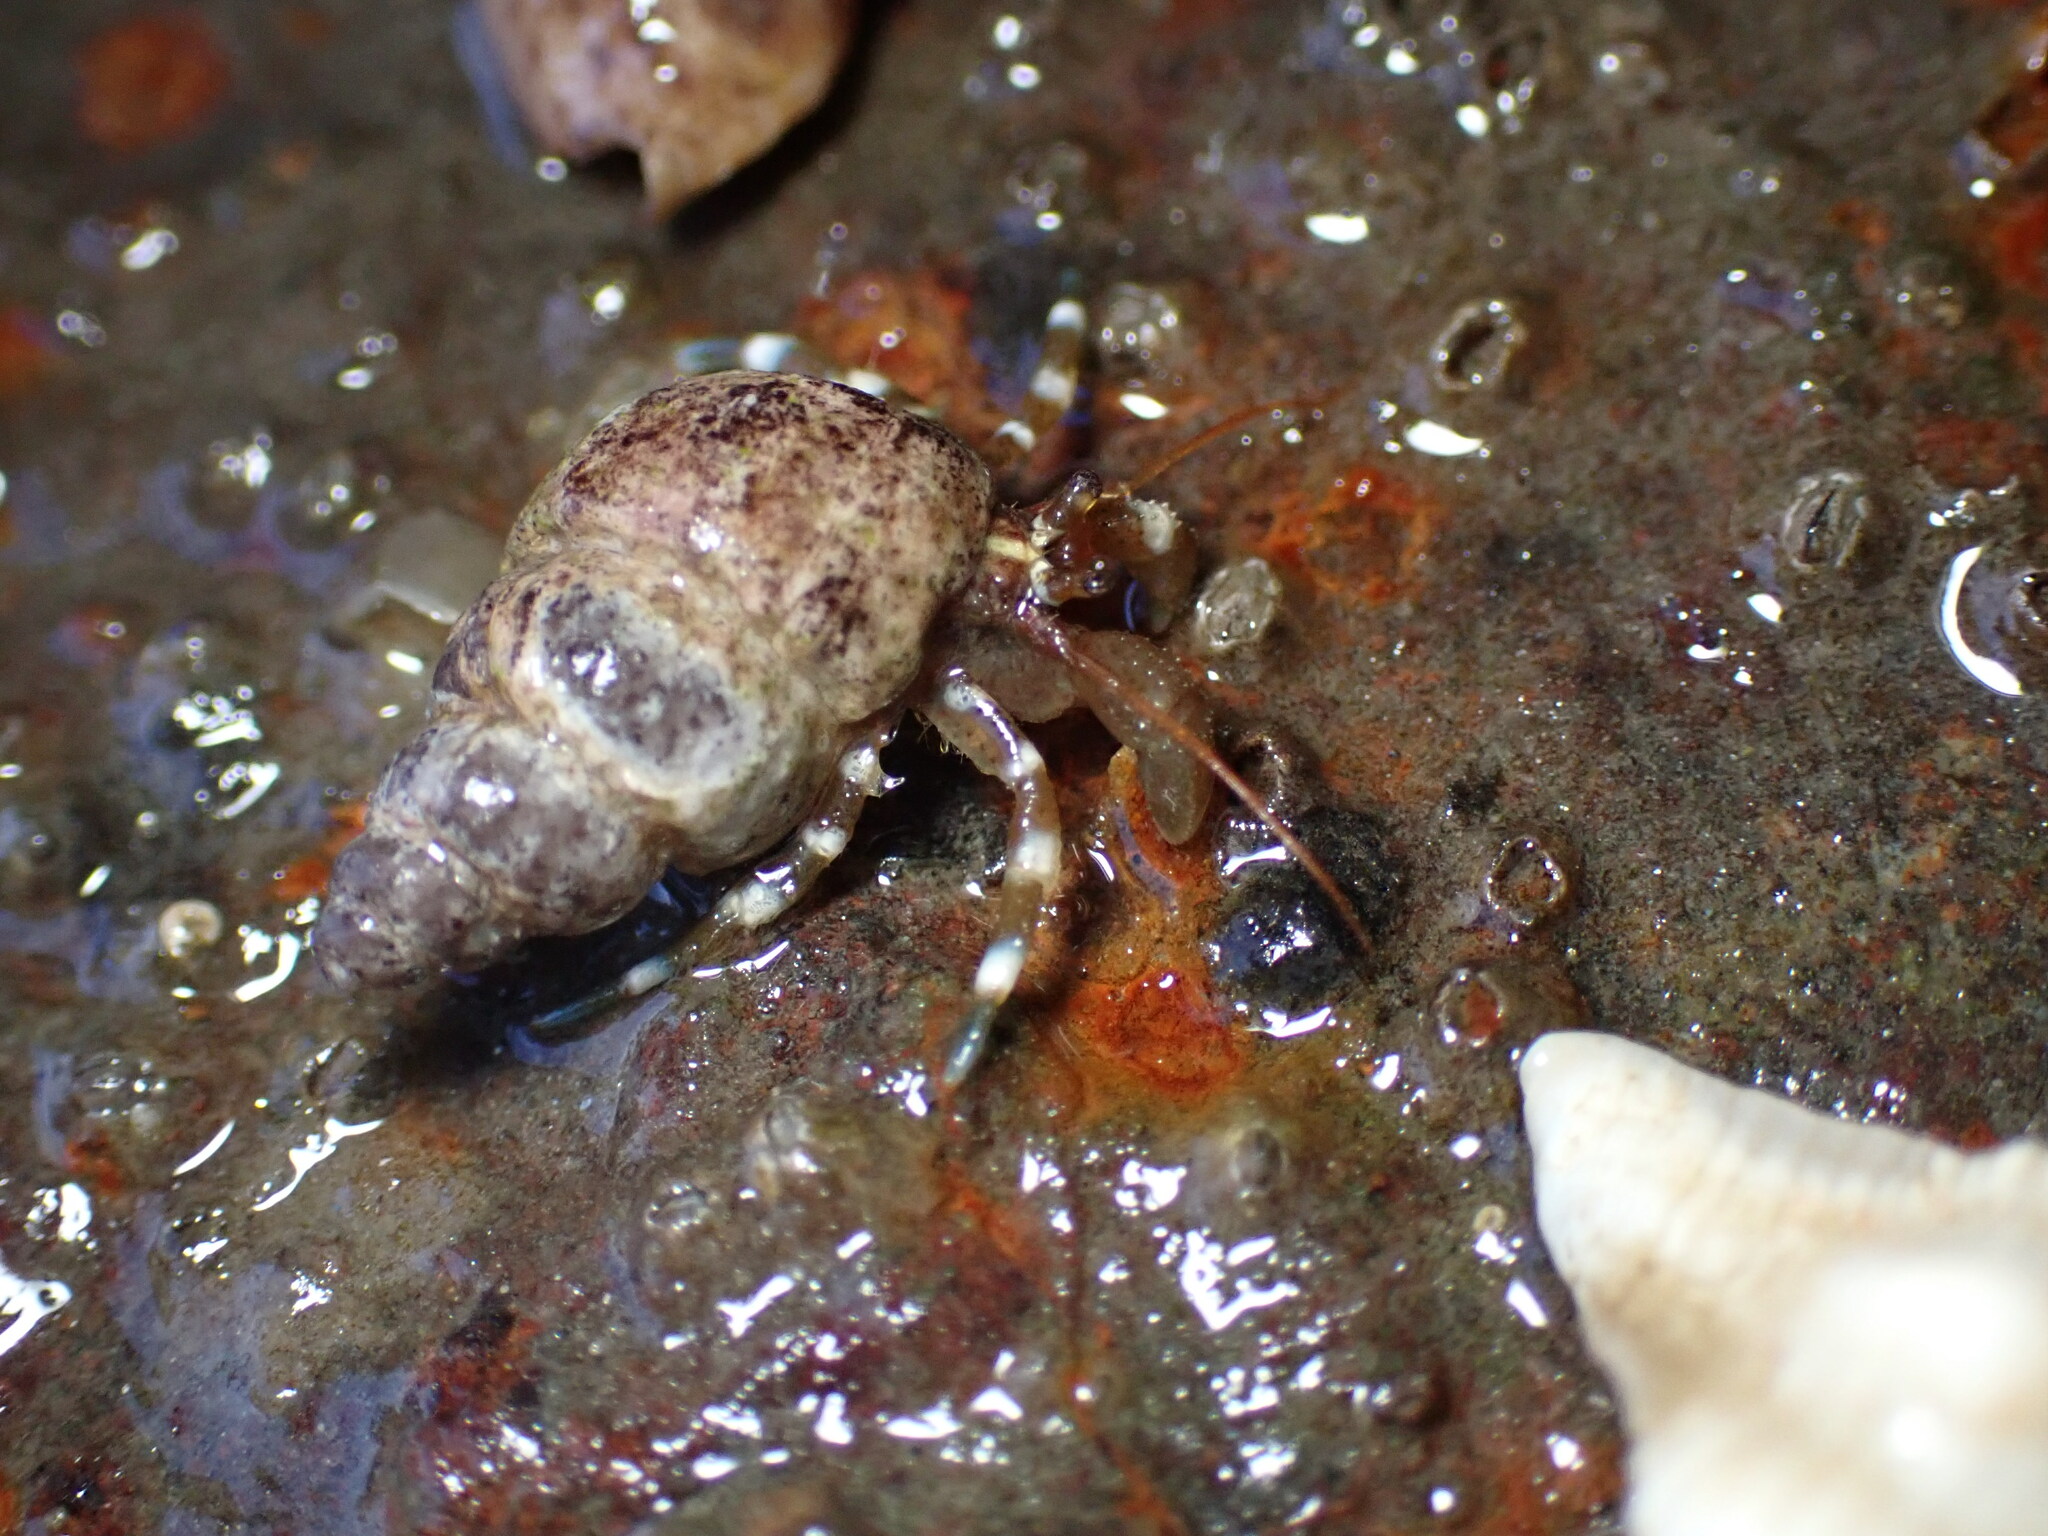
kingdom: Animalia
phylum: Arthropoda
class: Malacostraca
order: Decapoda
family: Paguridae
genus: Pagurus
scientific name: Pagurus samuelis
